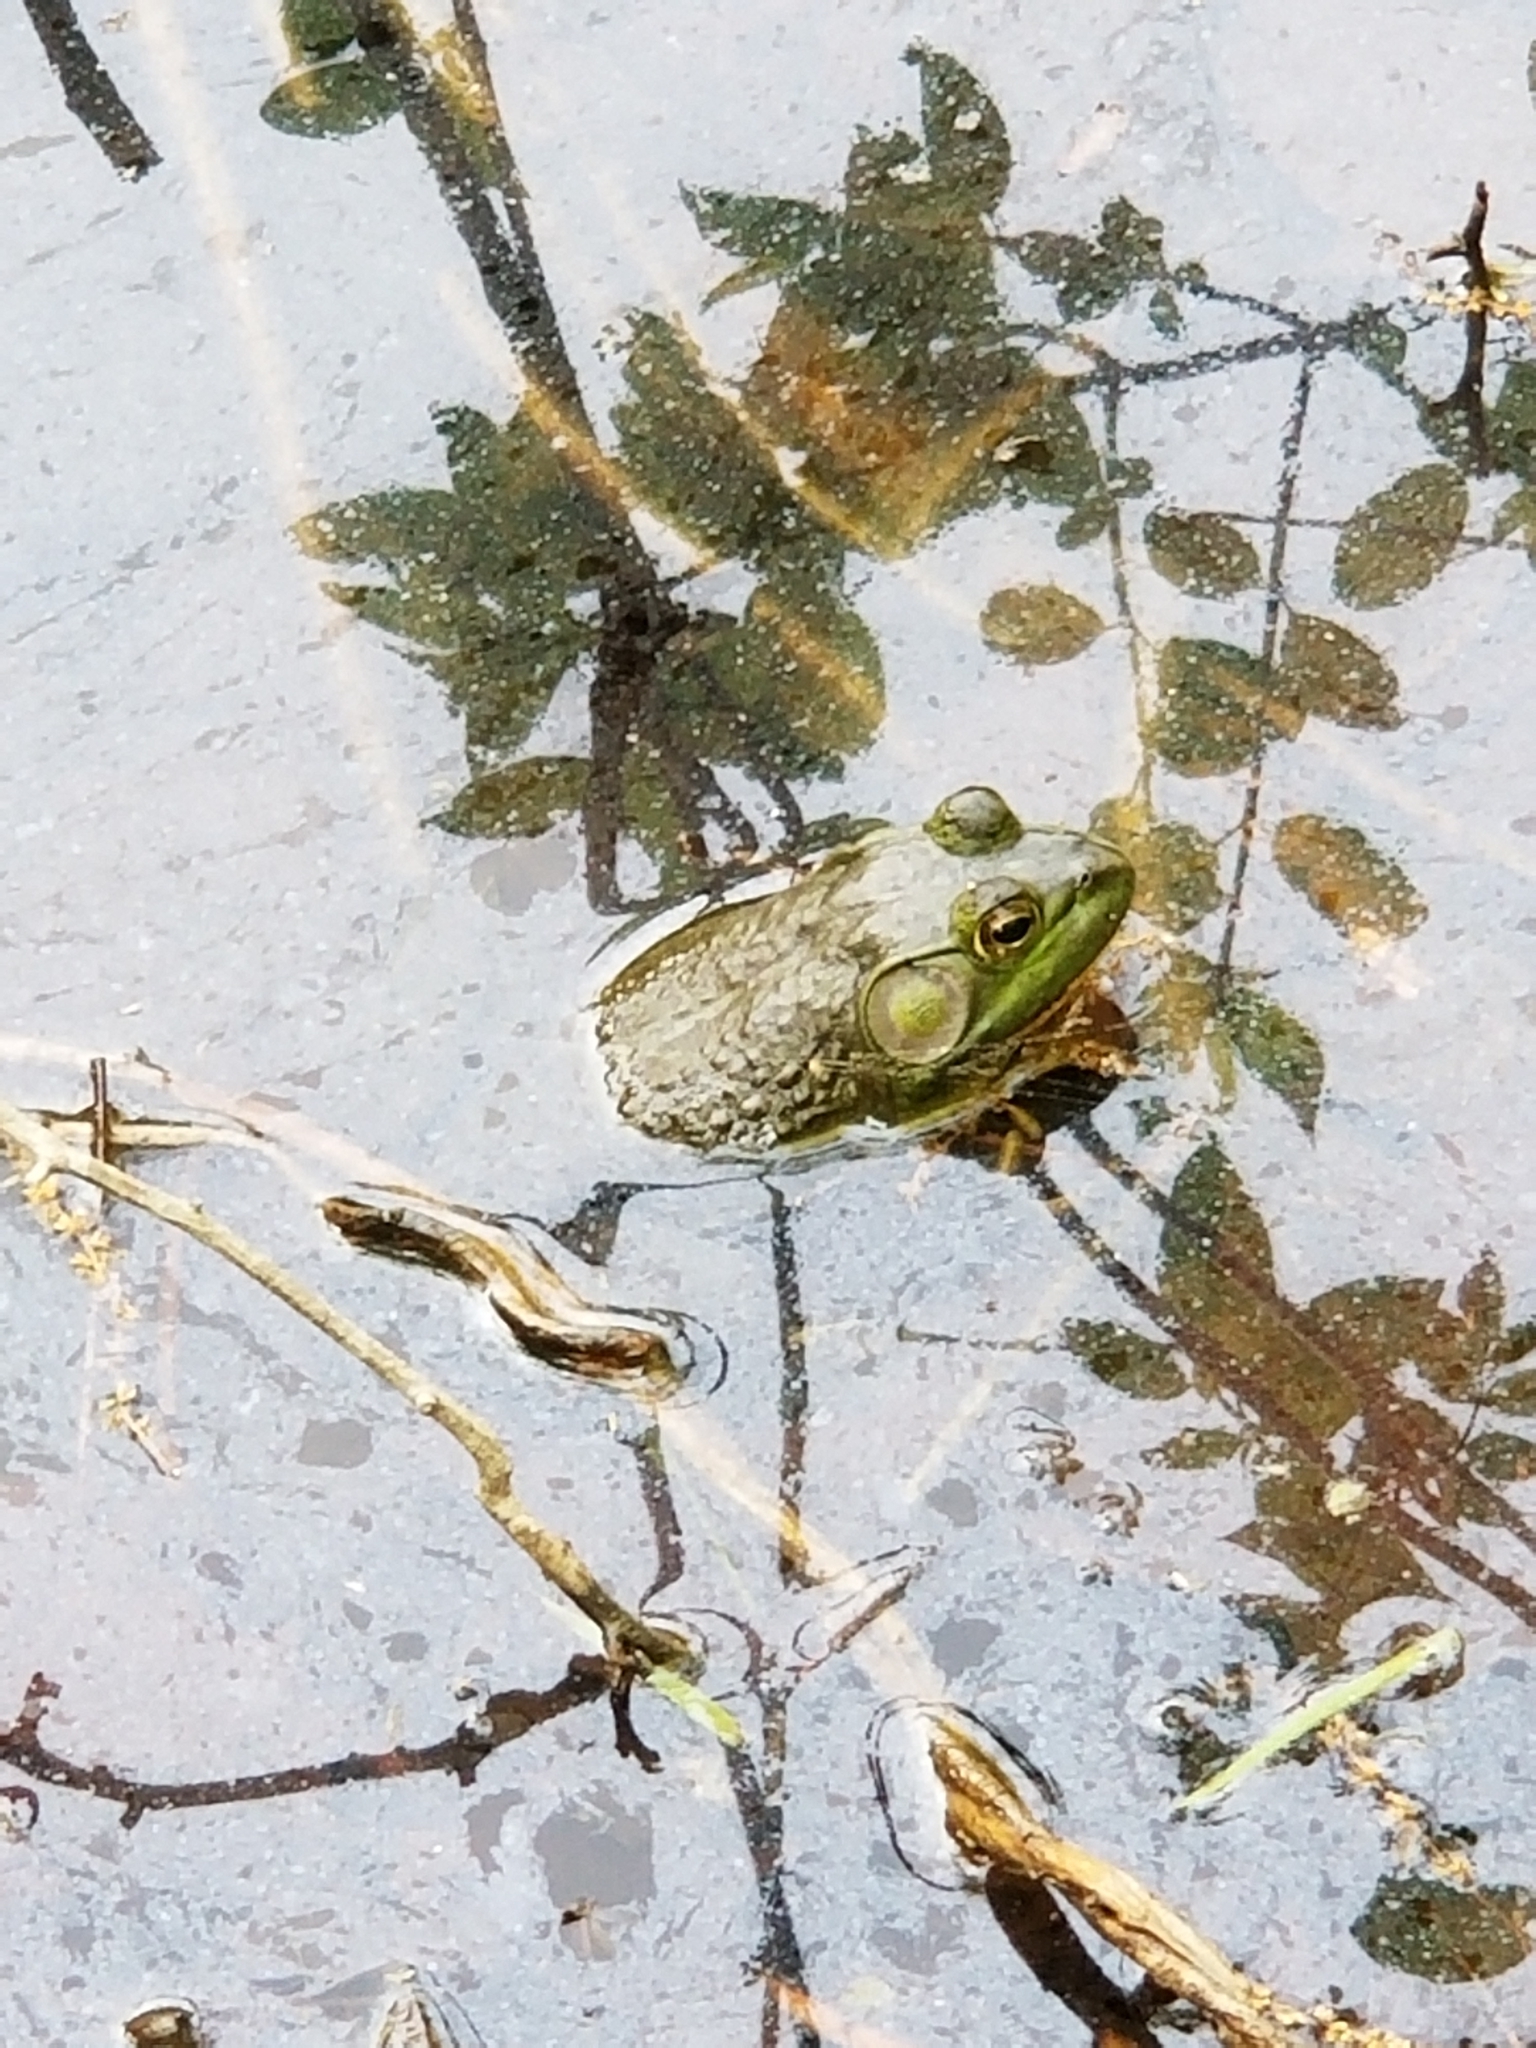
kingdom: Animalia
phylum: Chordata
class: Amphibia
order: Anura
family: Ranidae
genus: Lithobates
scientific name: Lithobates catesbeianus
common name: American bullfrog
